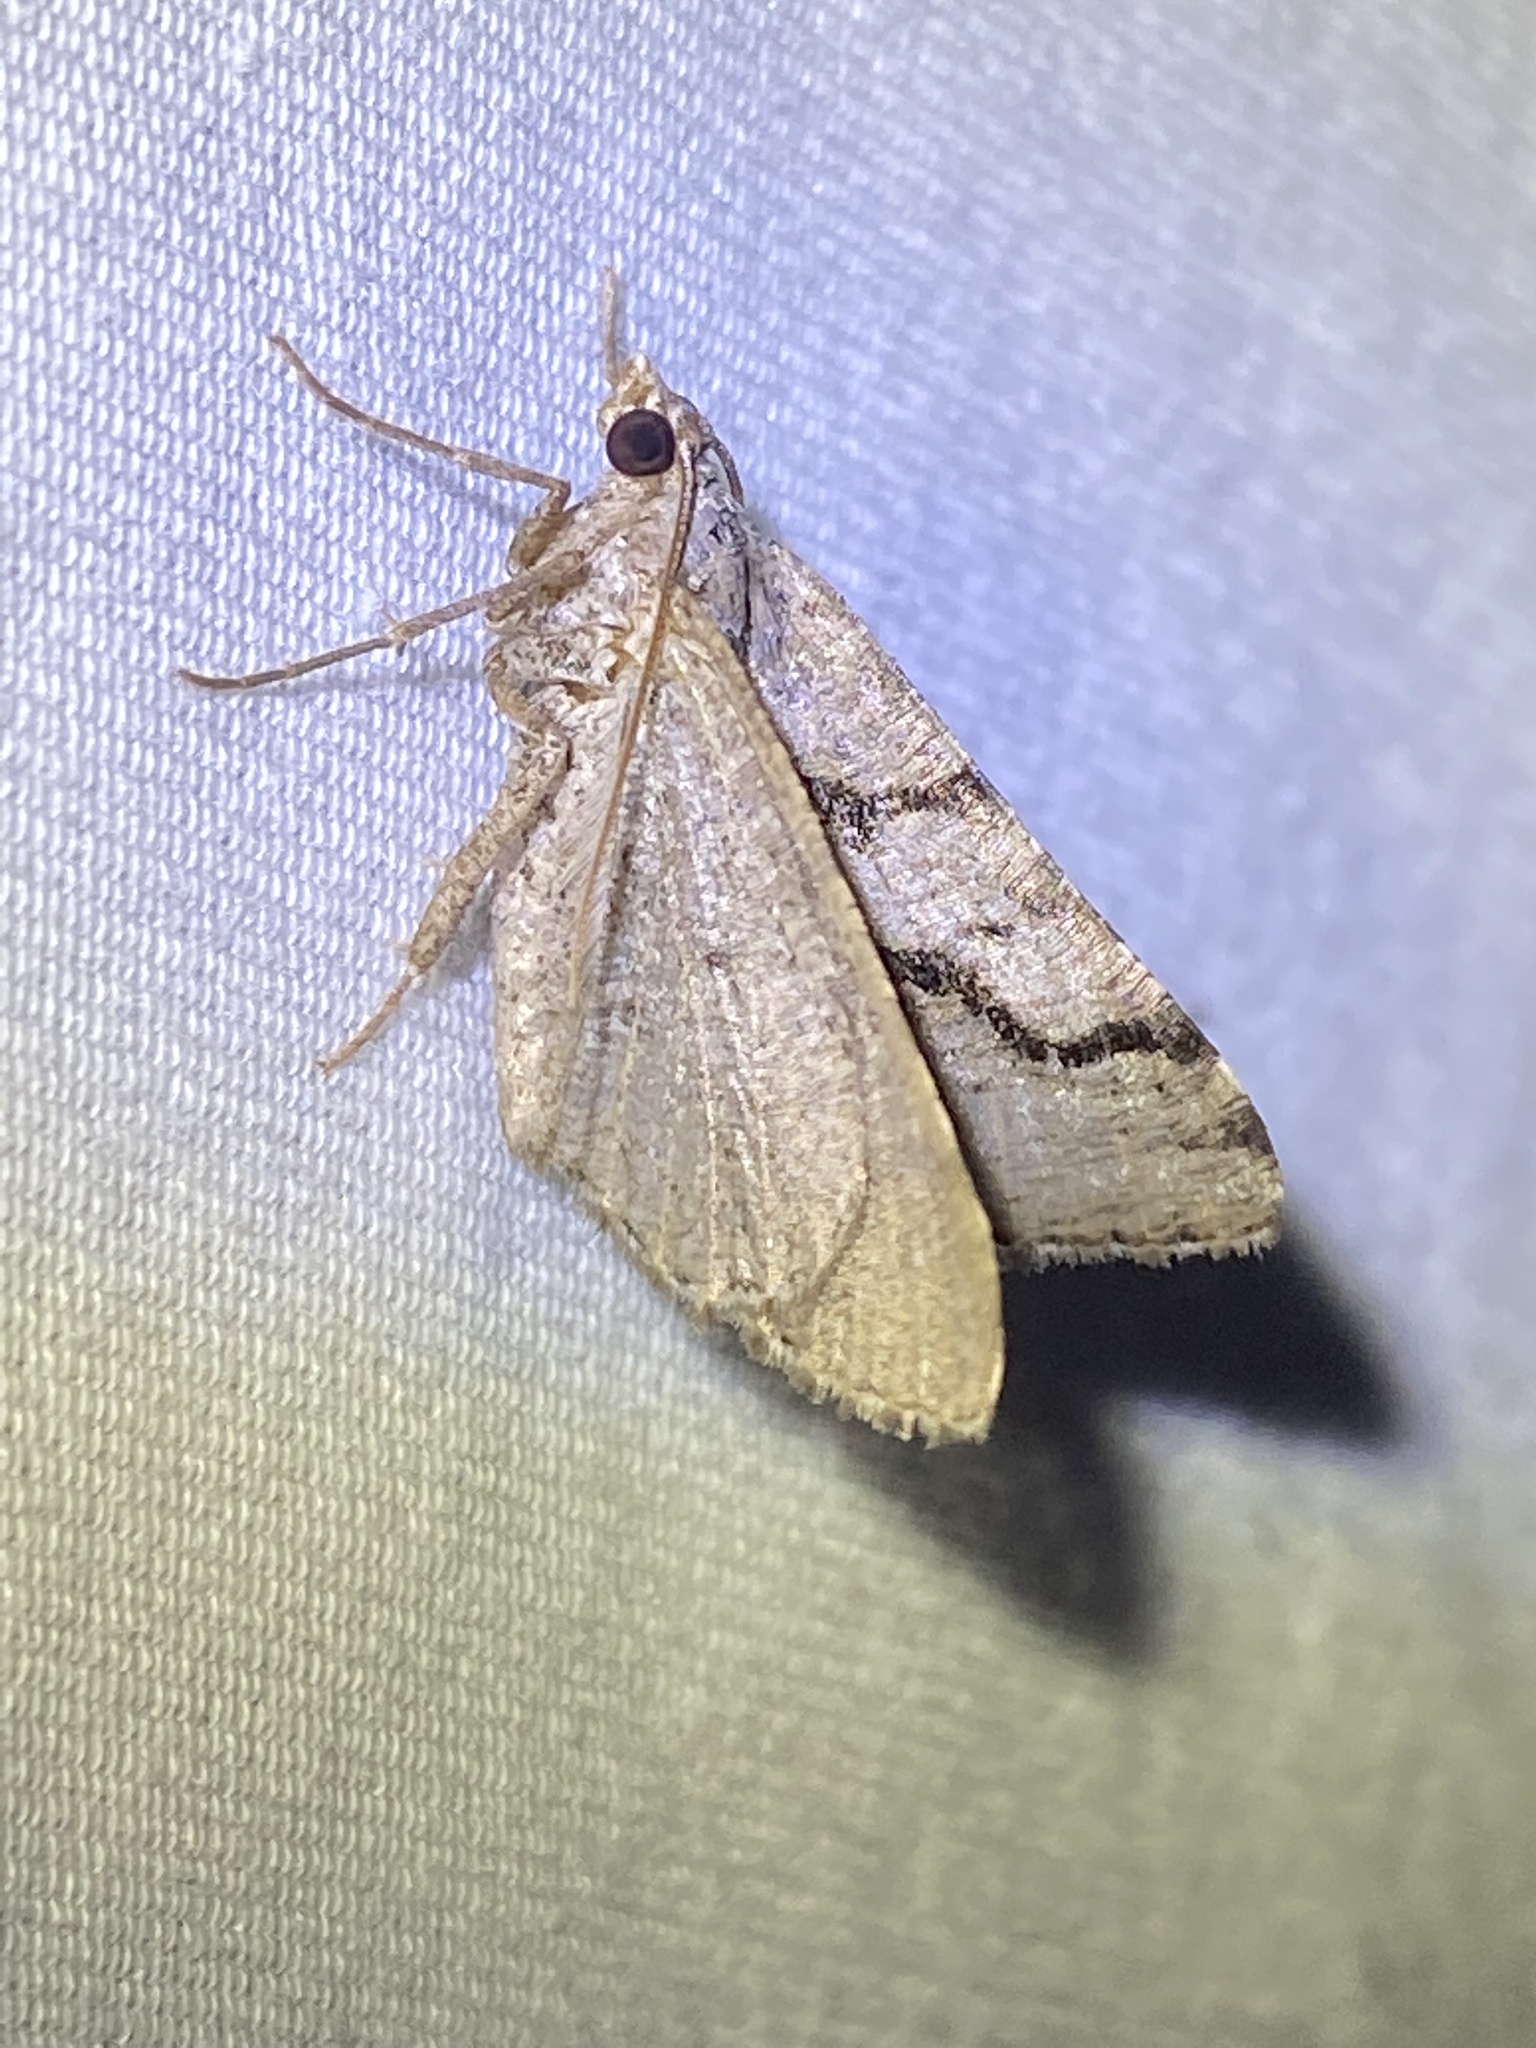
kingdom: Animalia
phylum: Arthropoda
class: Insecta
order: Lepidoptera
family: Geometridae
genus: Digrammia
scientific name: Digrammia continuata
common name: Curve-lined angle
